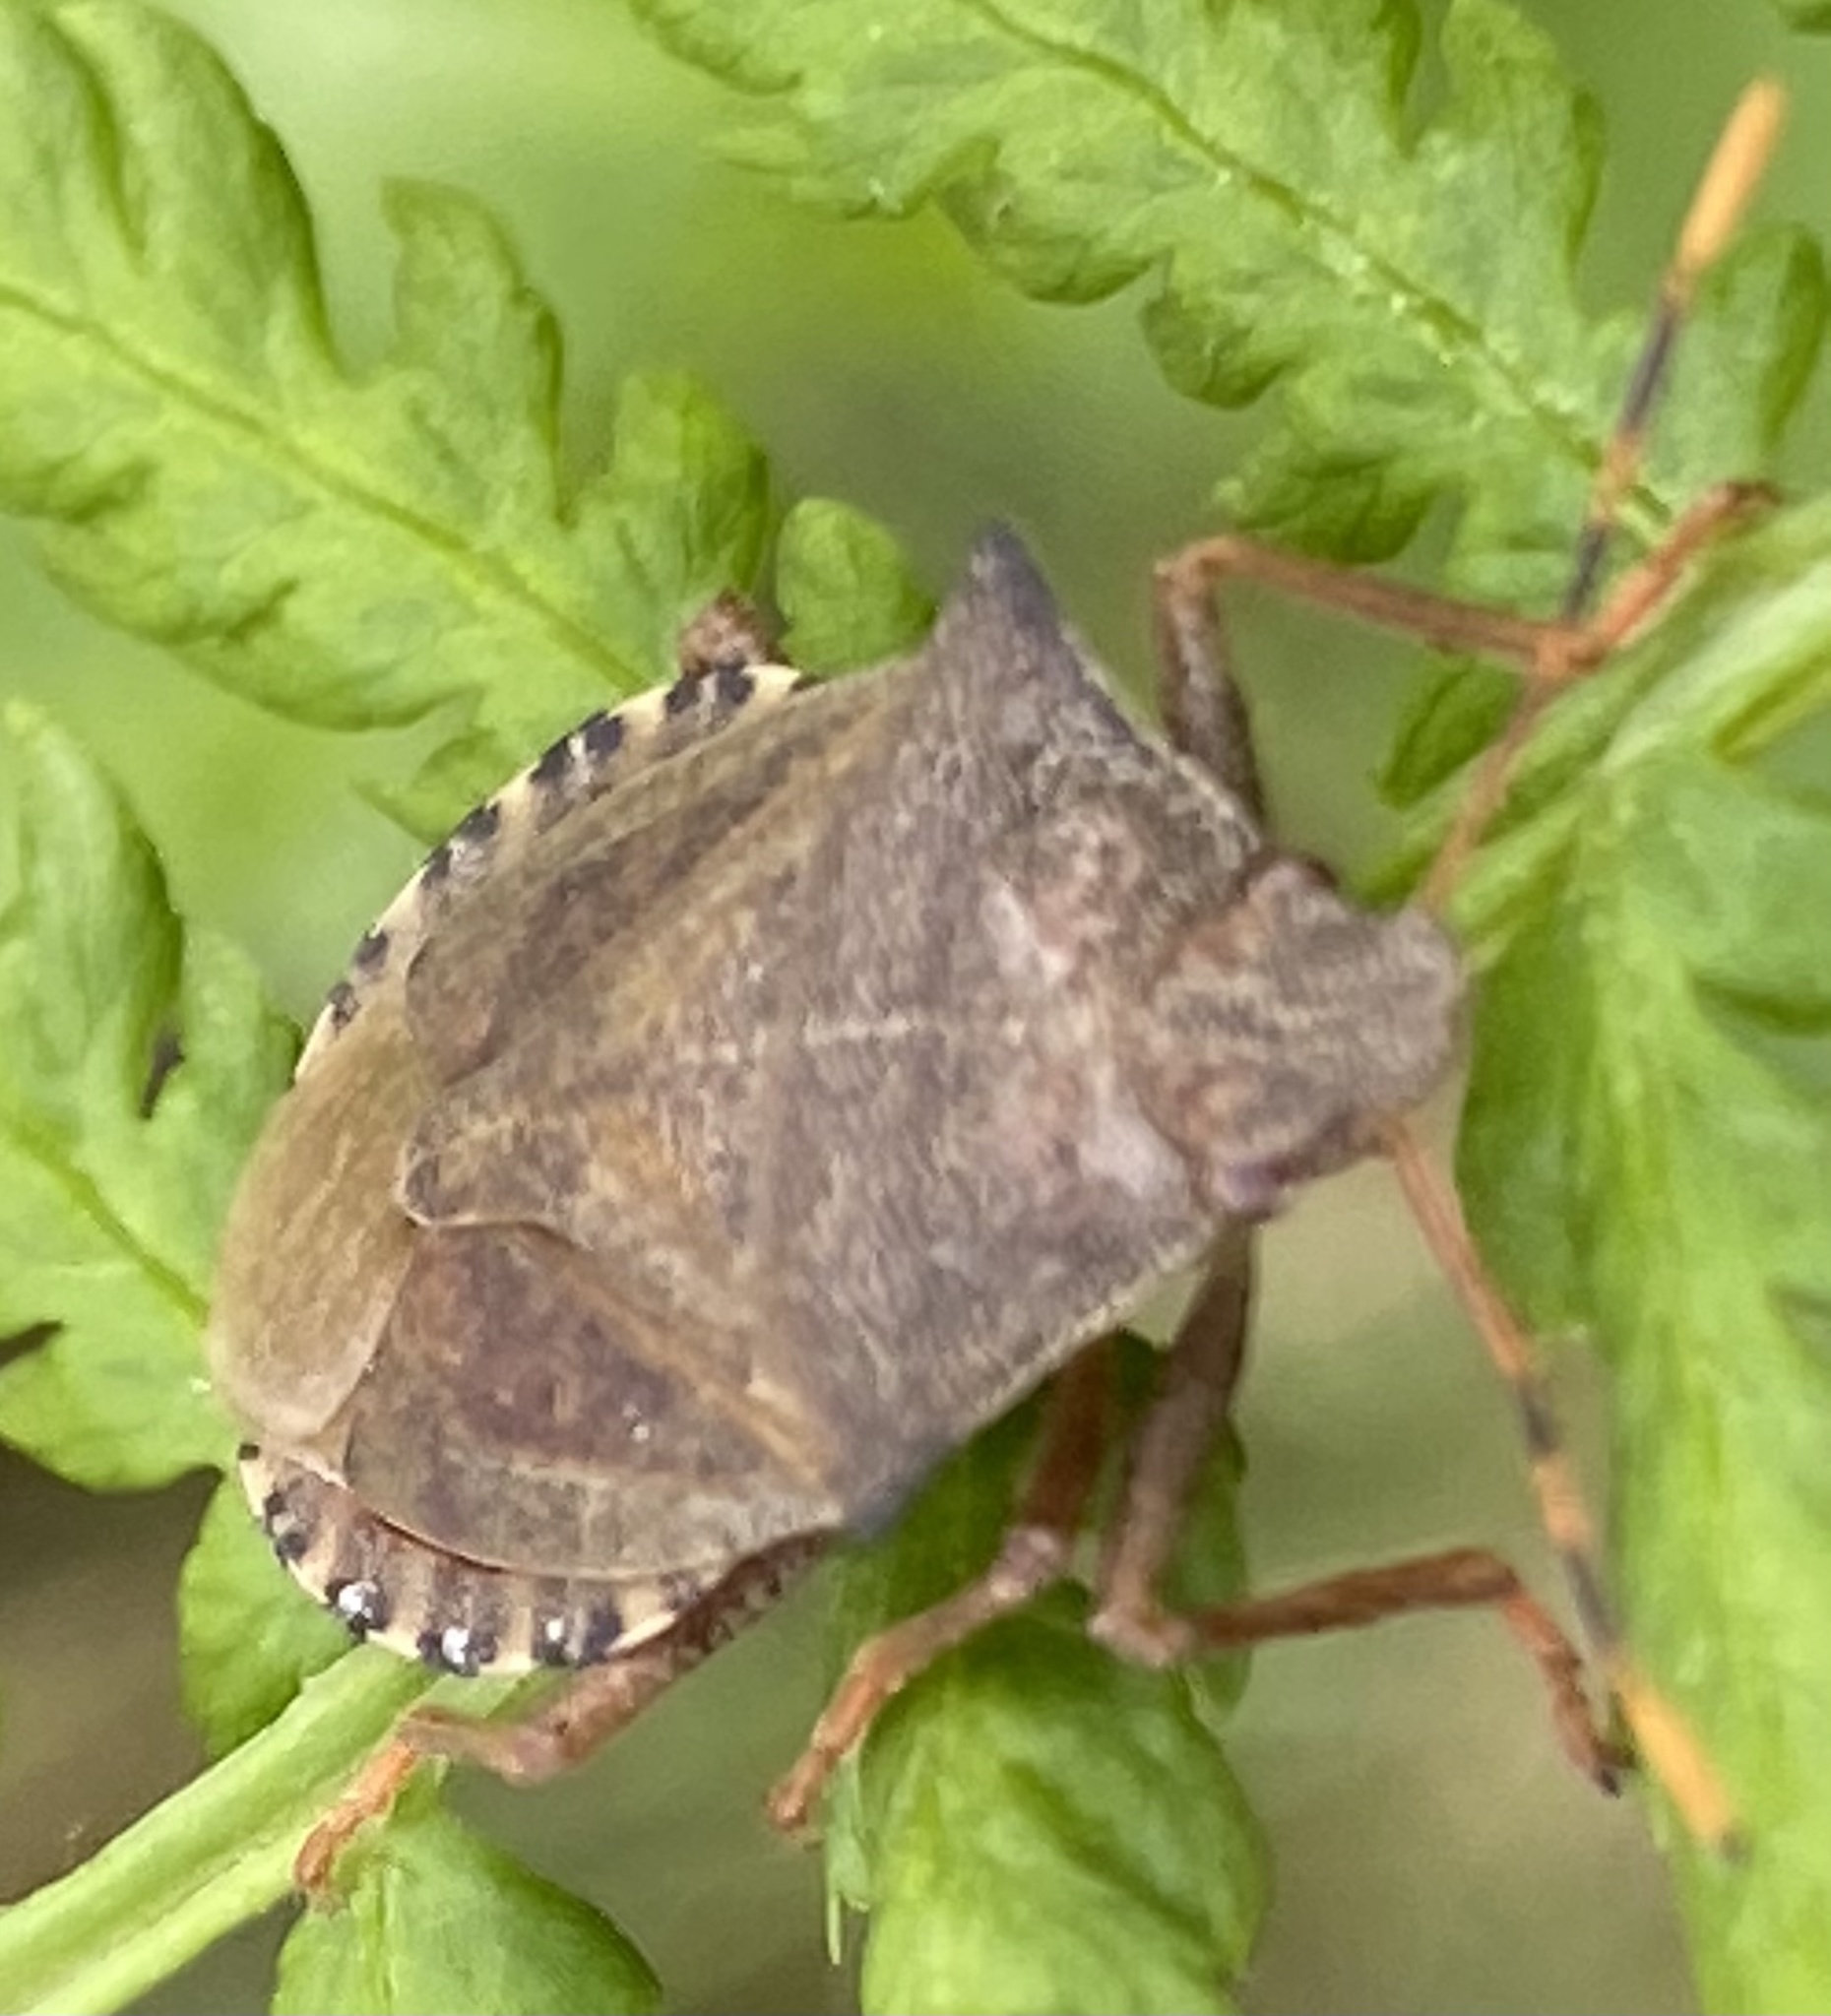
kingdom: Animalia
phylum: Arthropoda
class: Insecta
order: Hemiptera
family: Pentatomidae
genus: Arma
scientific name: Arma custos
